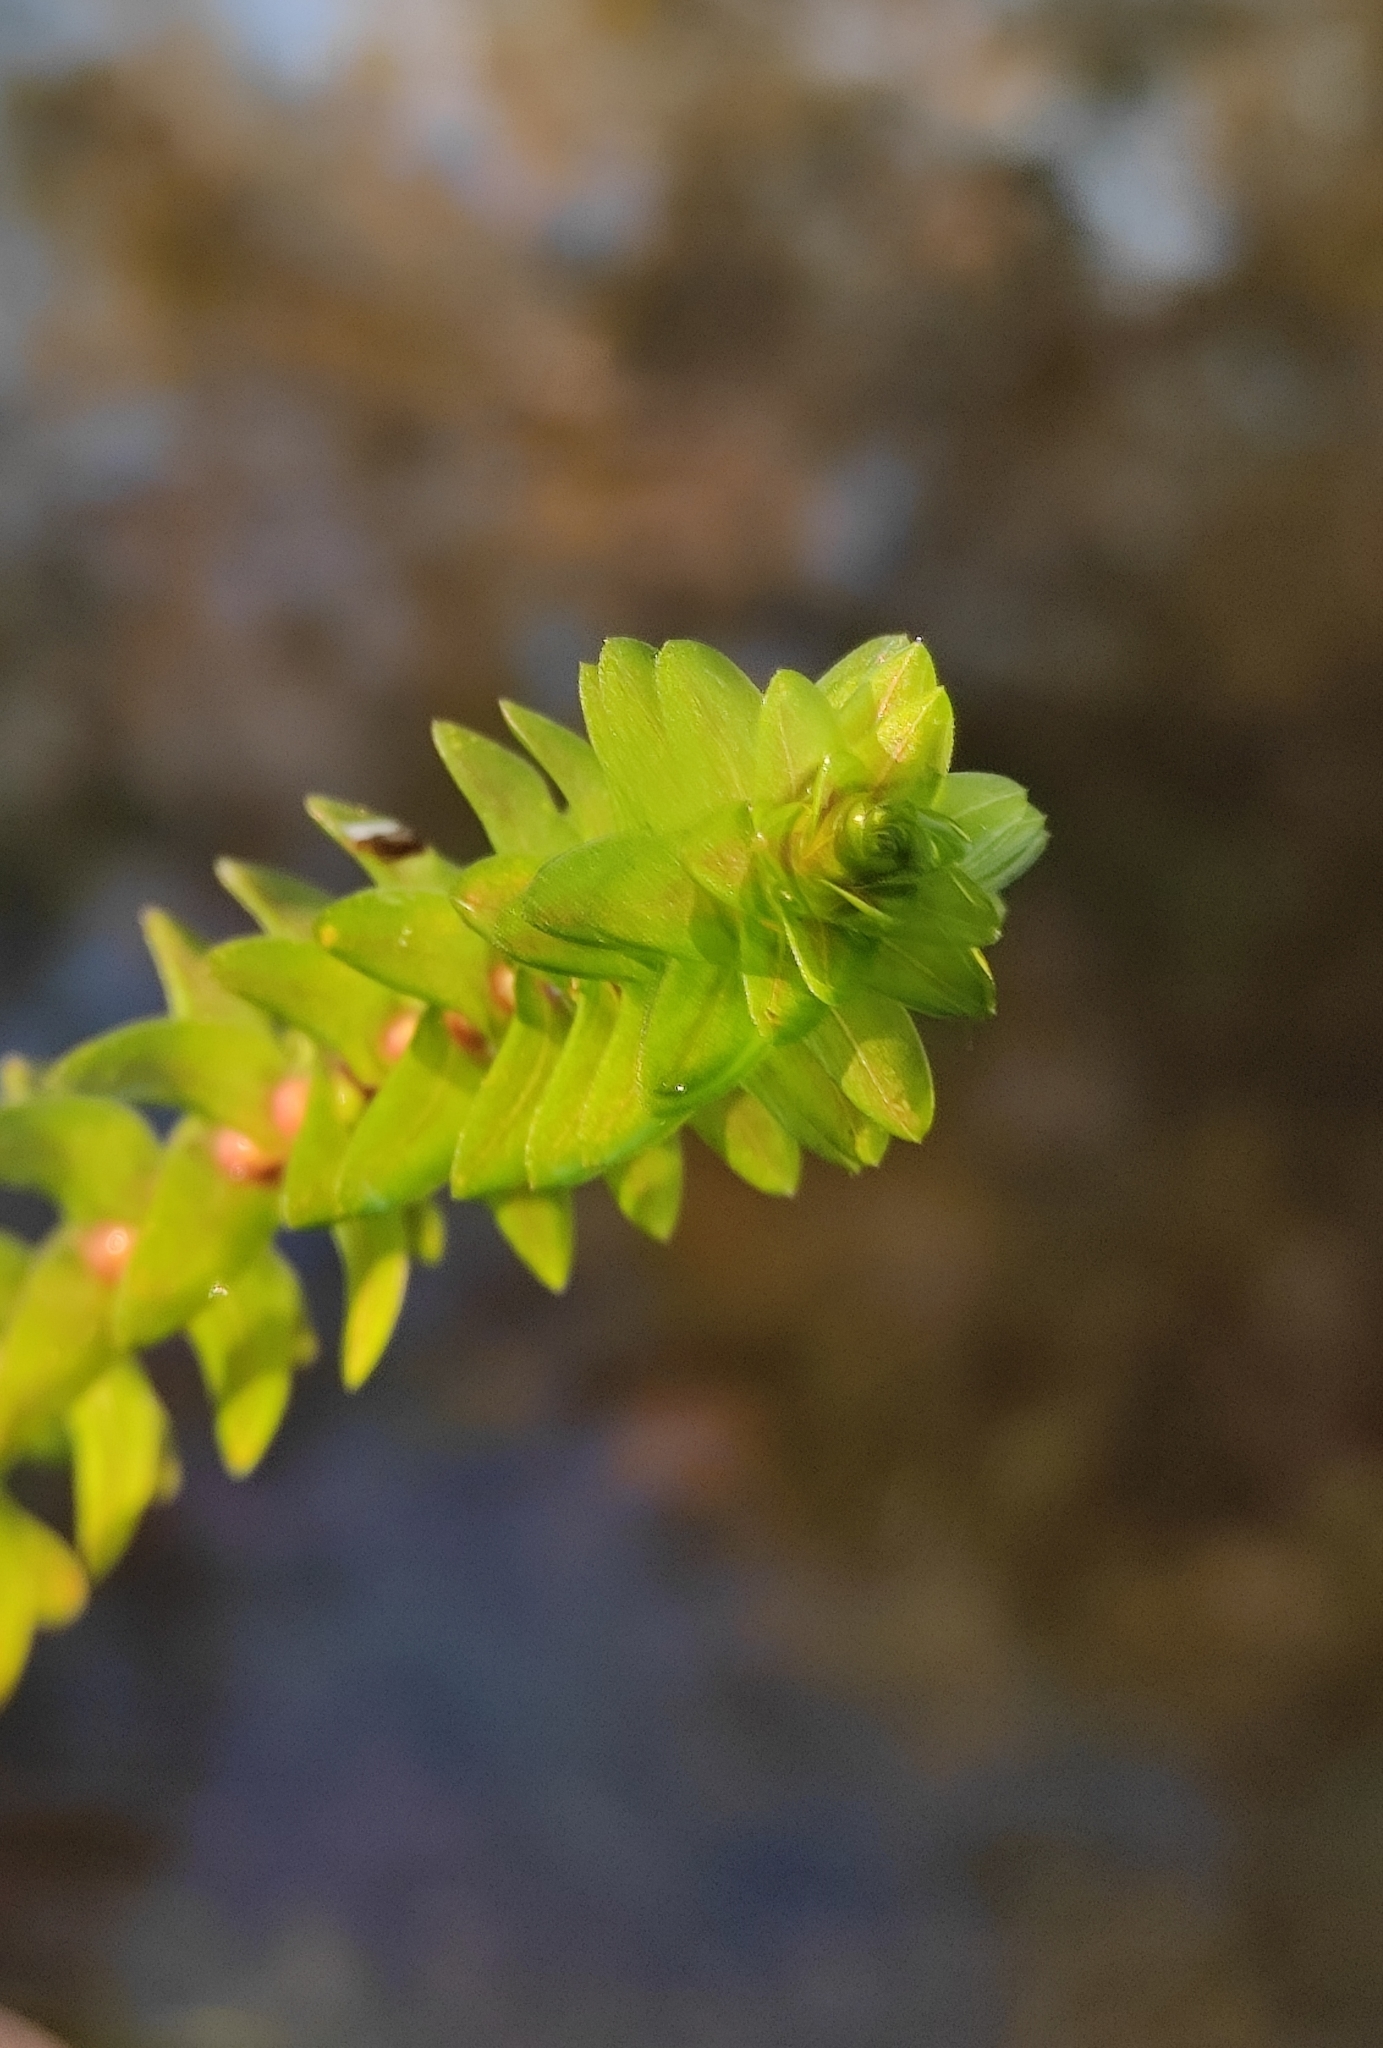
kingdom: Plantae
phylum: Tracheophyta
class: Liliopsida
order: Alismatales
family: Hydrocharitaceae
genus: Elodea
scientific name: Elodea canadensis
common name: Canadian waterweed
